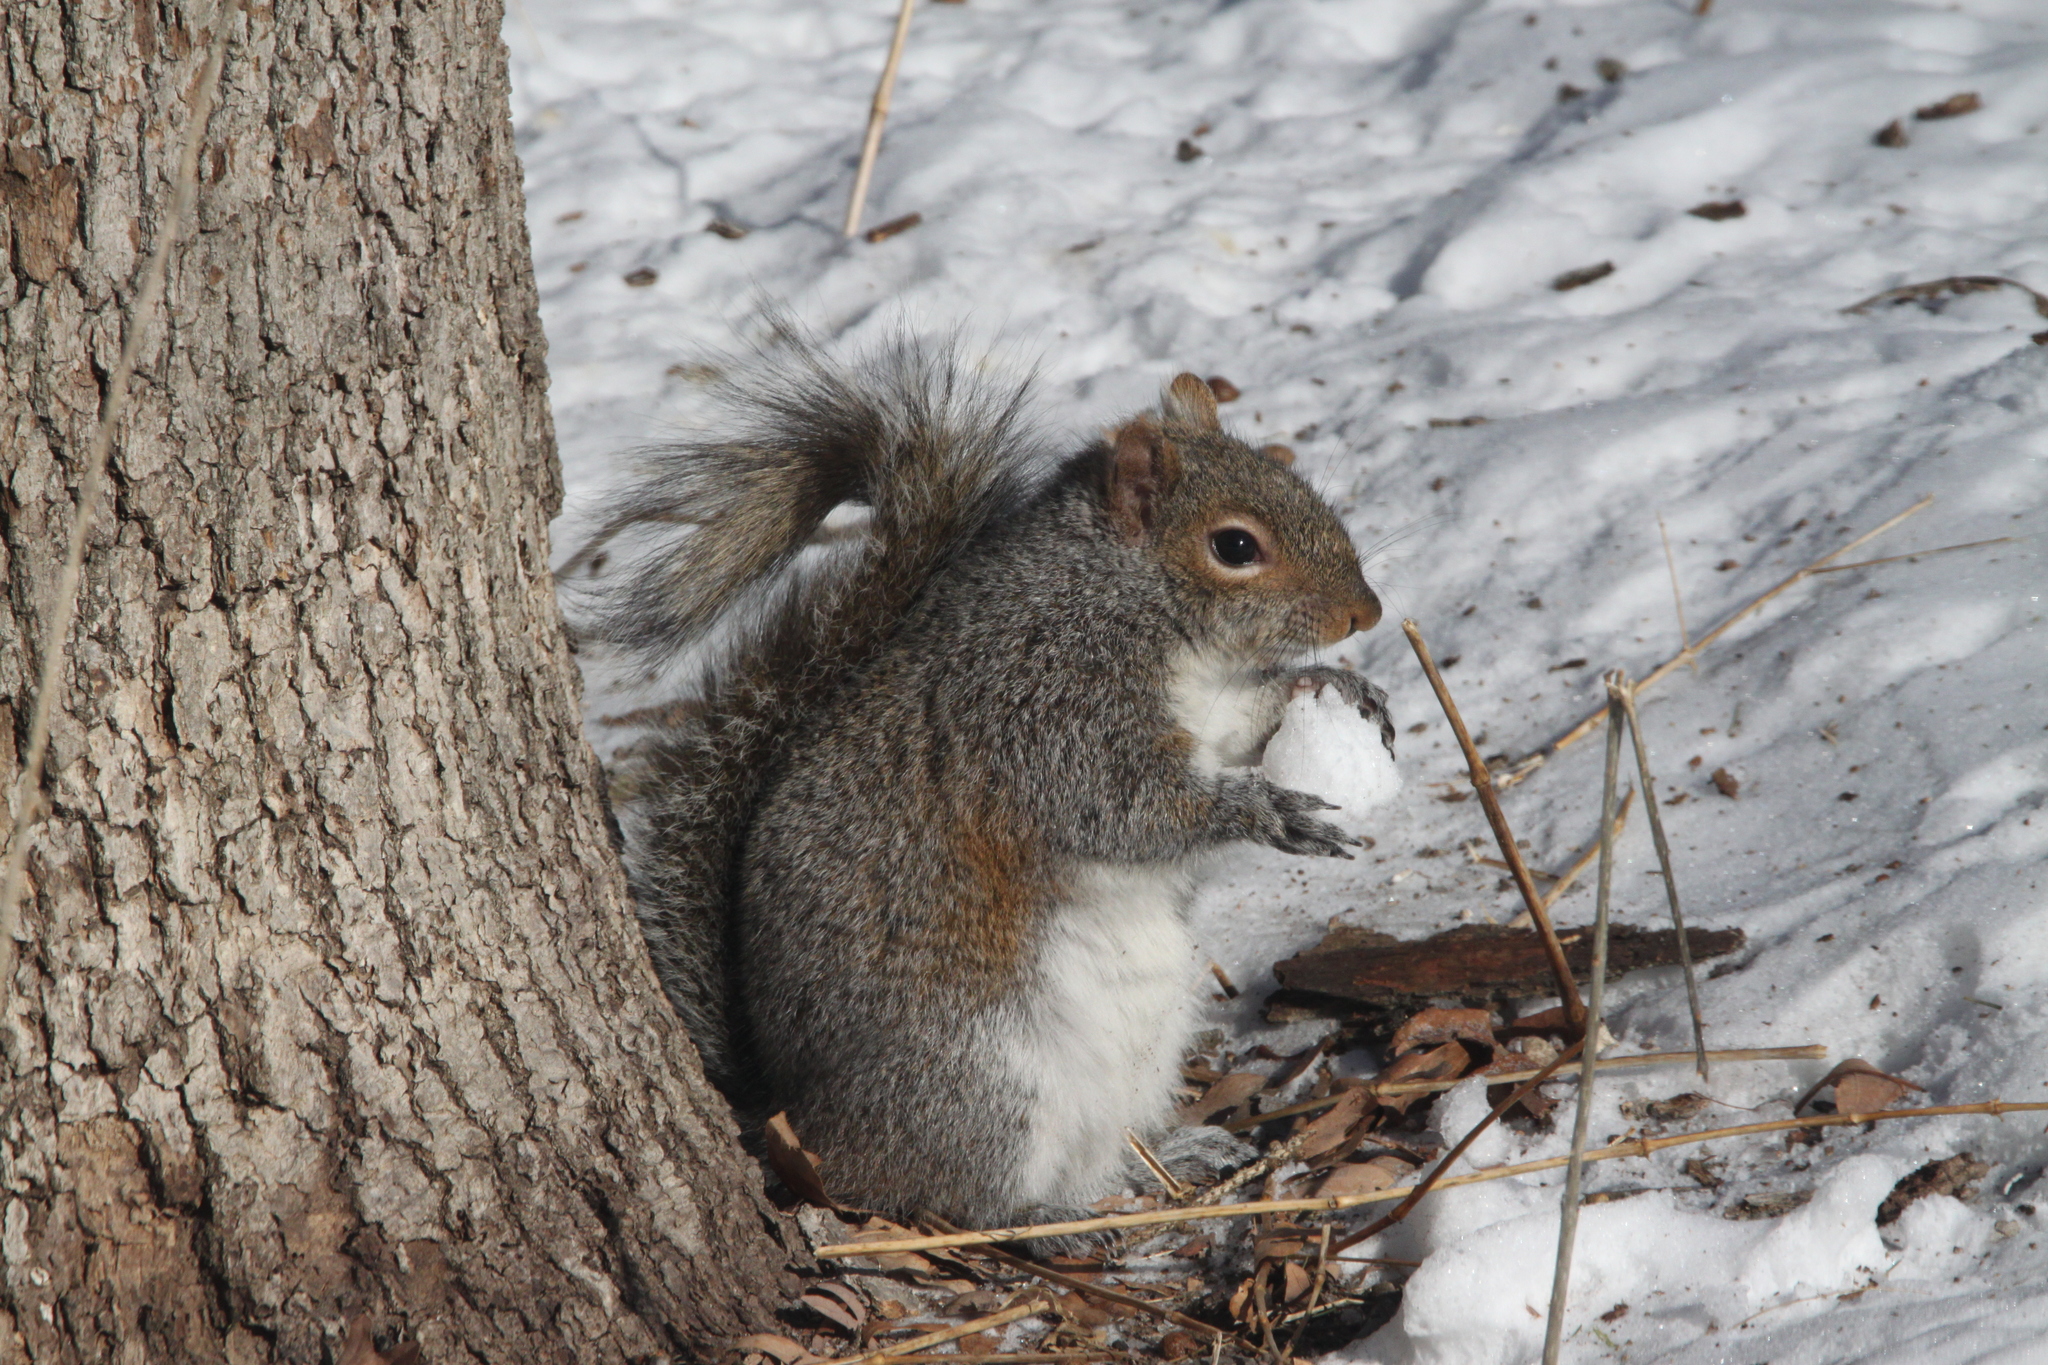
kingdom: Animalia
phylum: Chordata
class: Mammalia
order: Rodentia
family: Sciuridae
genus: Sciurus
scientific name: Sciurus carolinensis
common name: Eastern gray squirrel
